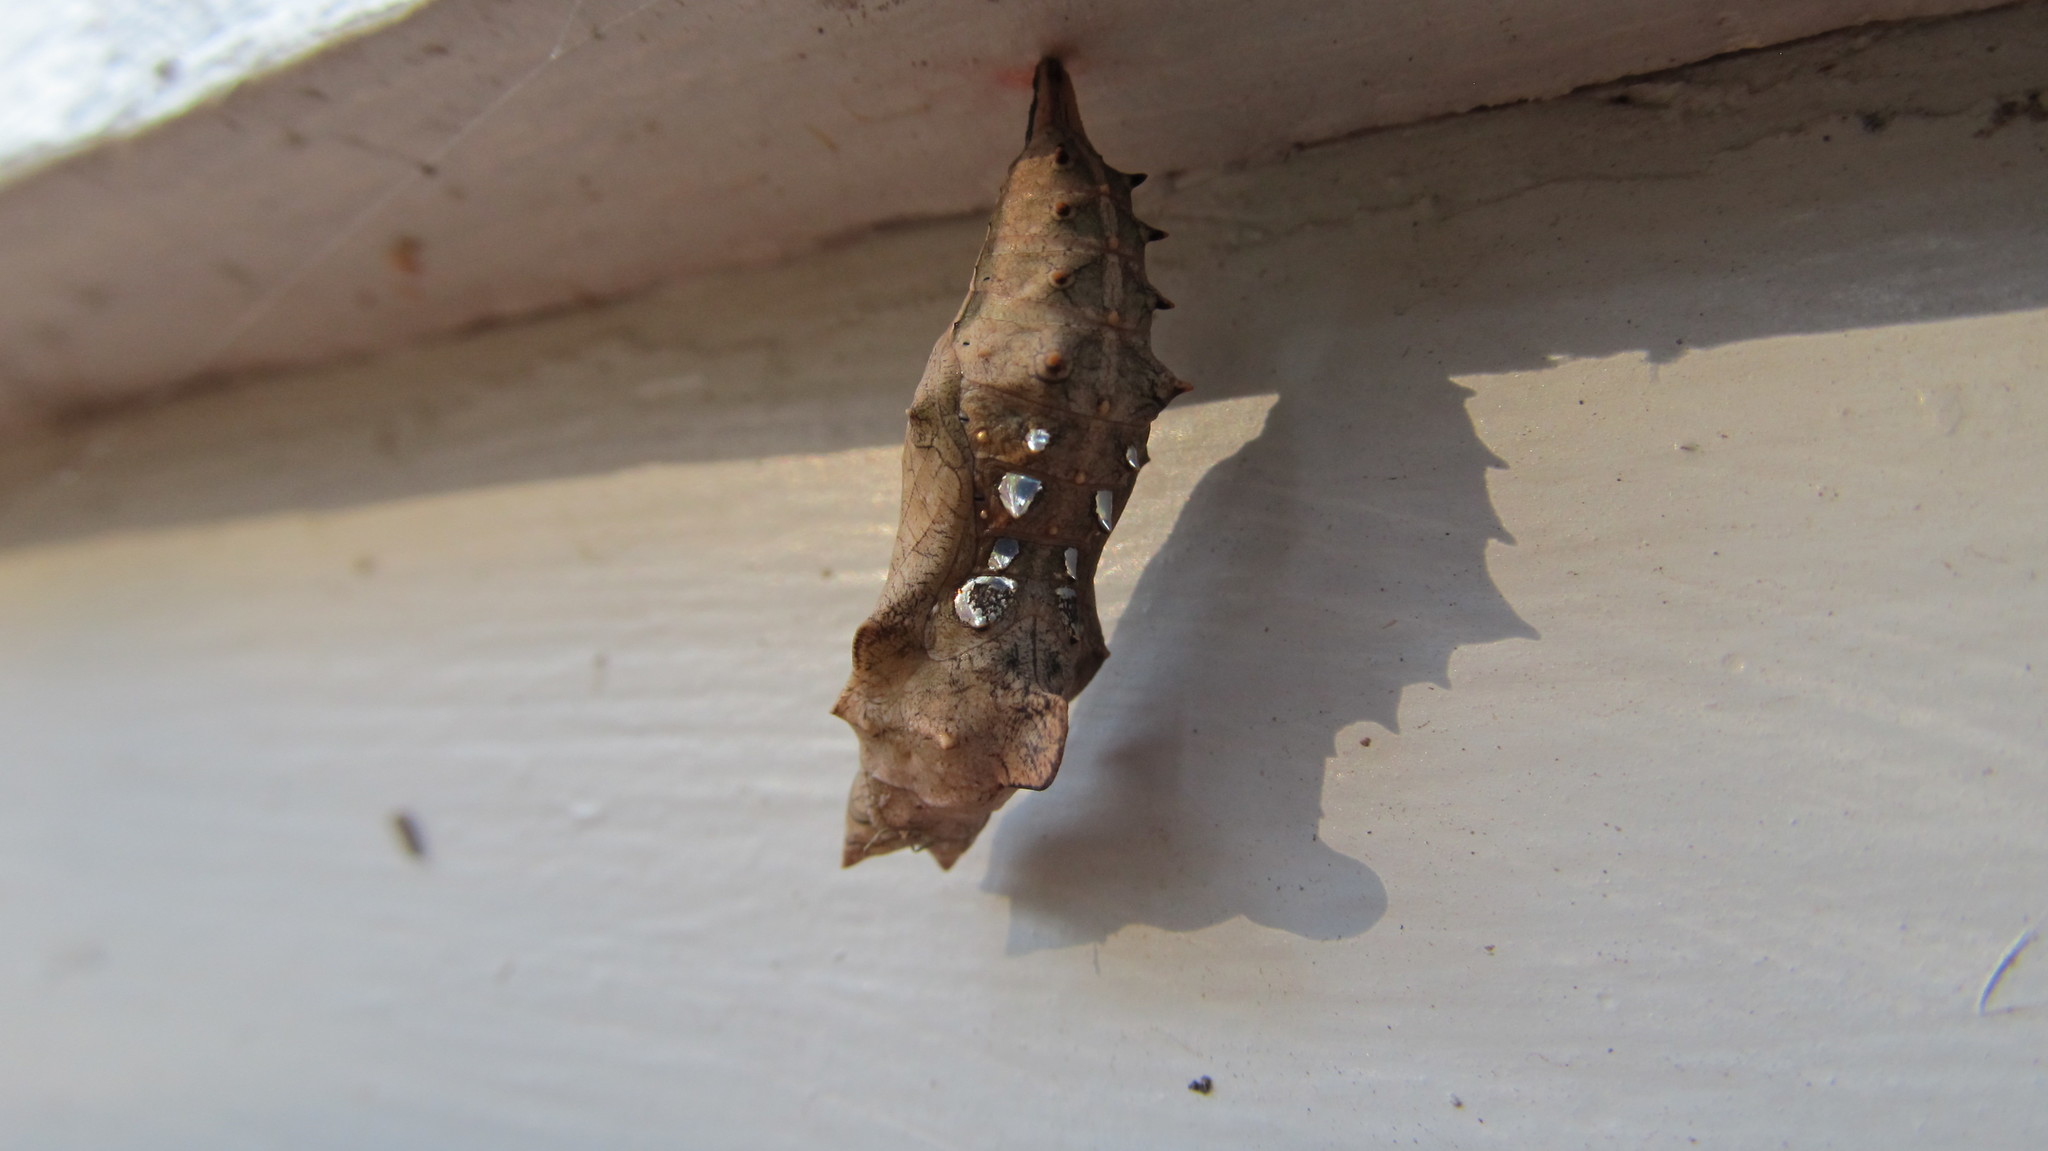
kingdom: Animalia
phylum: Arthropoda
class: Insecta
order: Lepidoptera
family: Nymphalidae
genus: Polygonia
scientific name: Polygonia interrogationis
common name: Question mark
